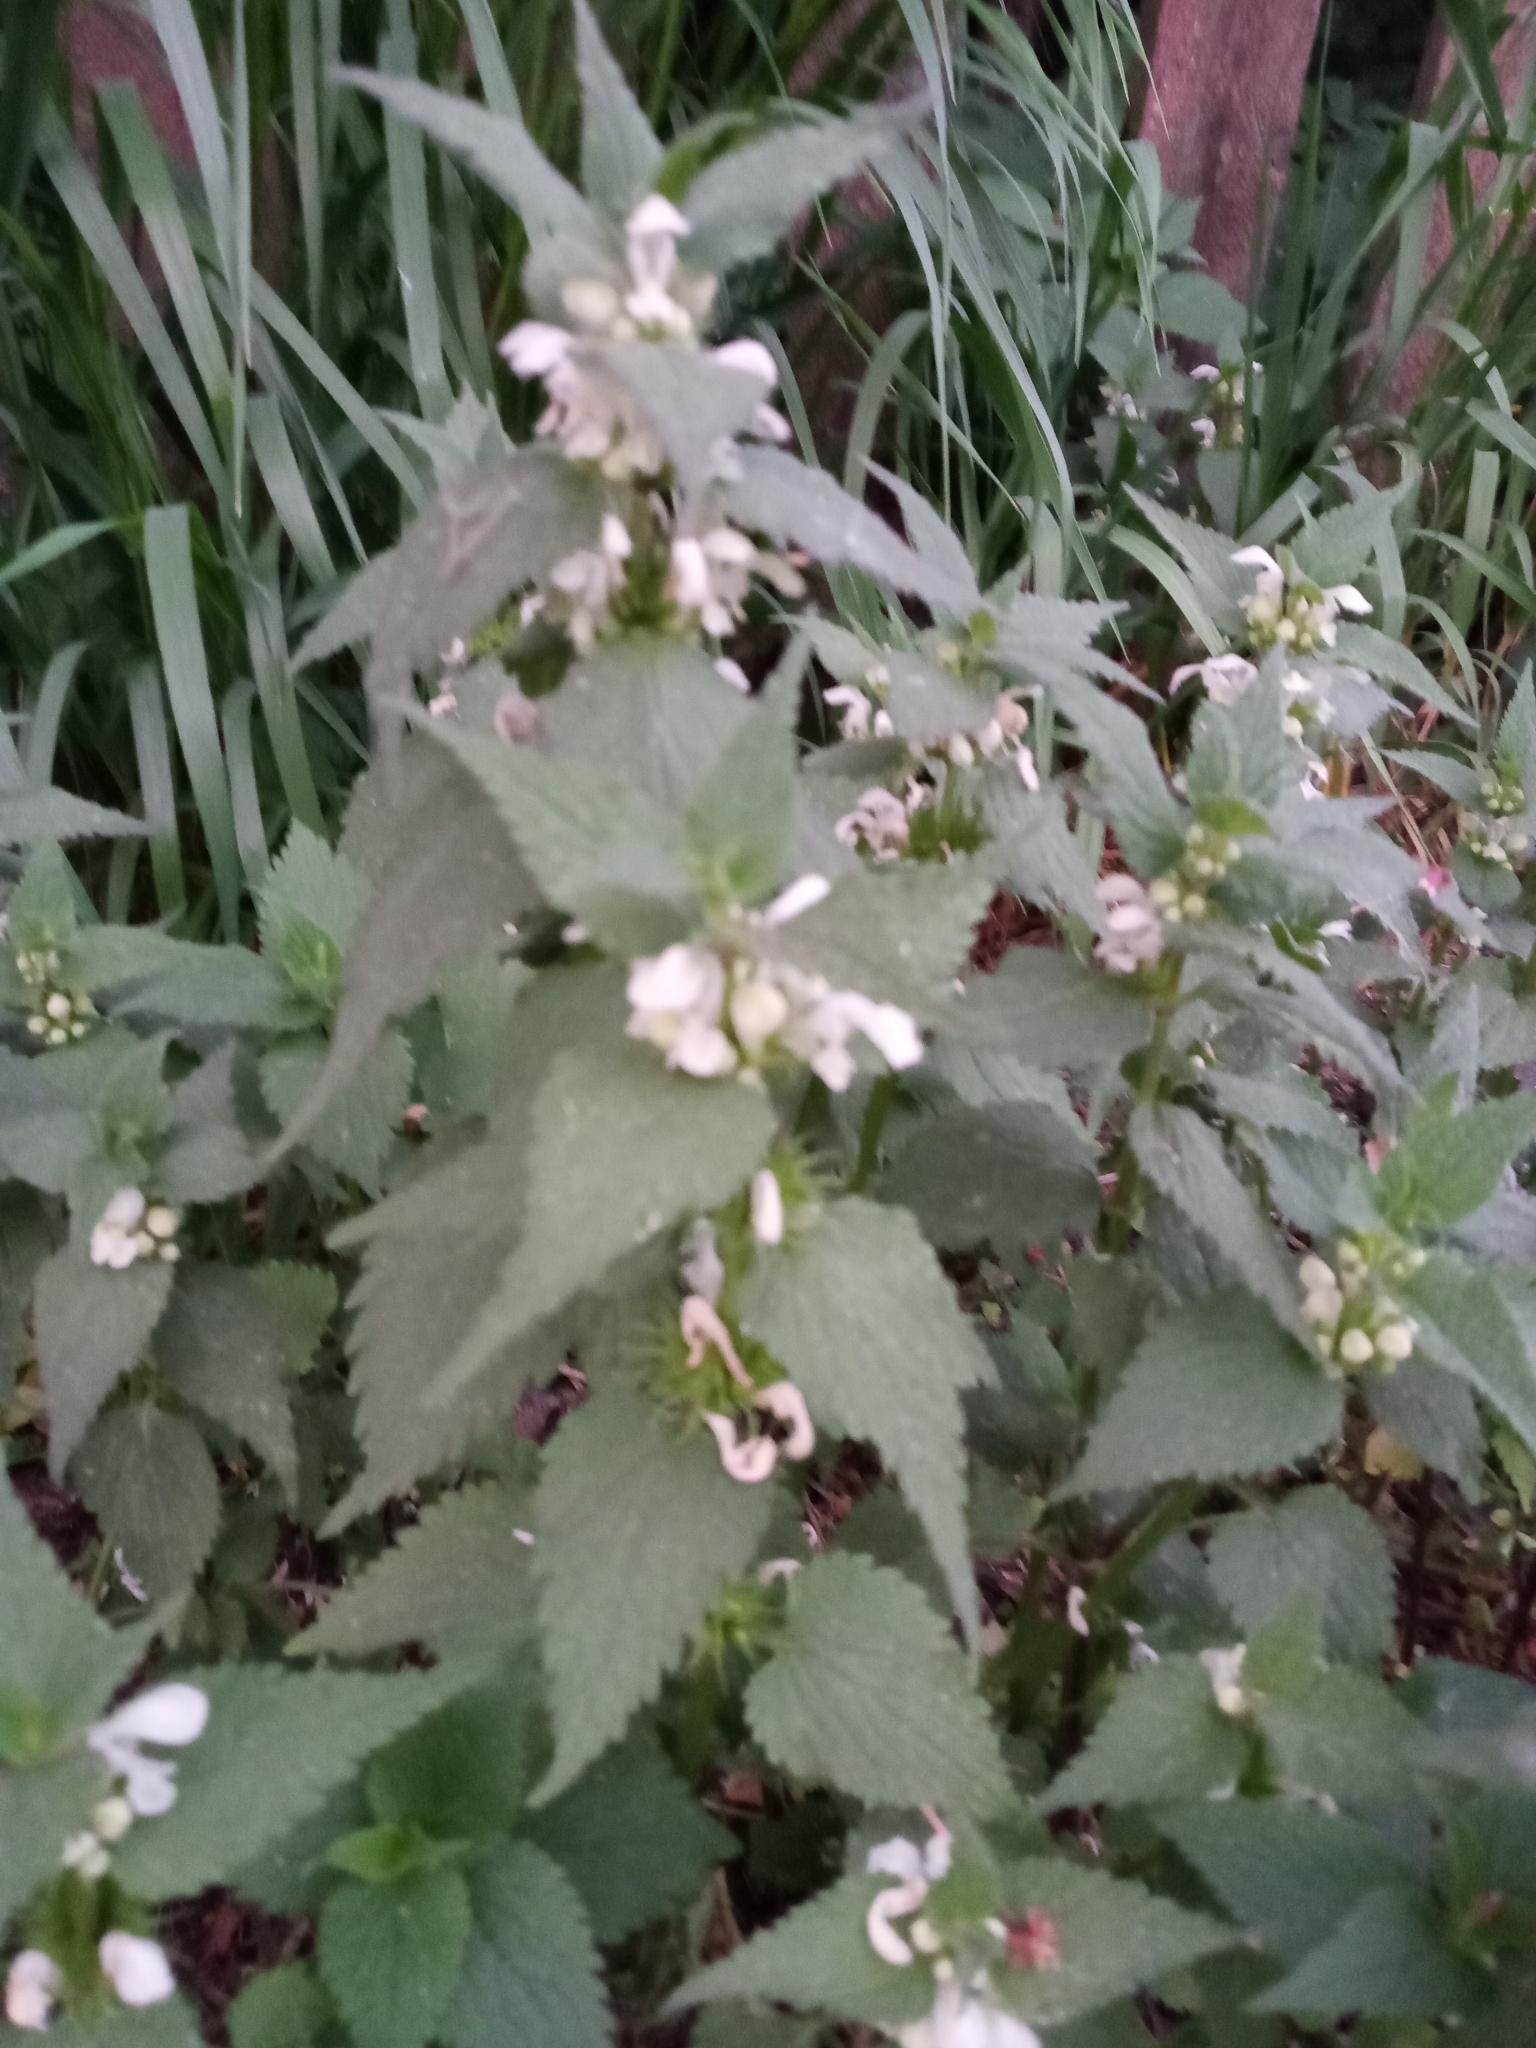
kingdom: Plantae
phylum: Tracheophyta
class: Magnoliopsida
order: Lamiales
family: Lamiaceae
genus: Lamium
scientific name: Lamium album
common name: White dead-nettle
